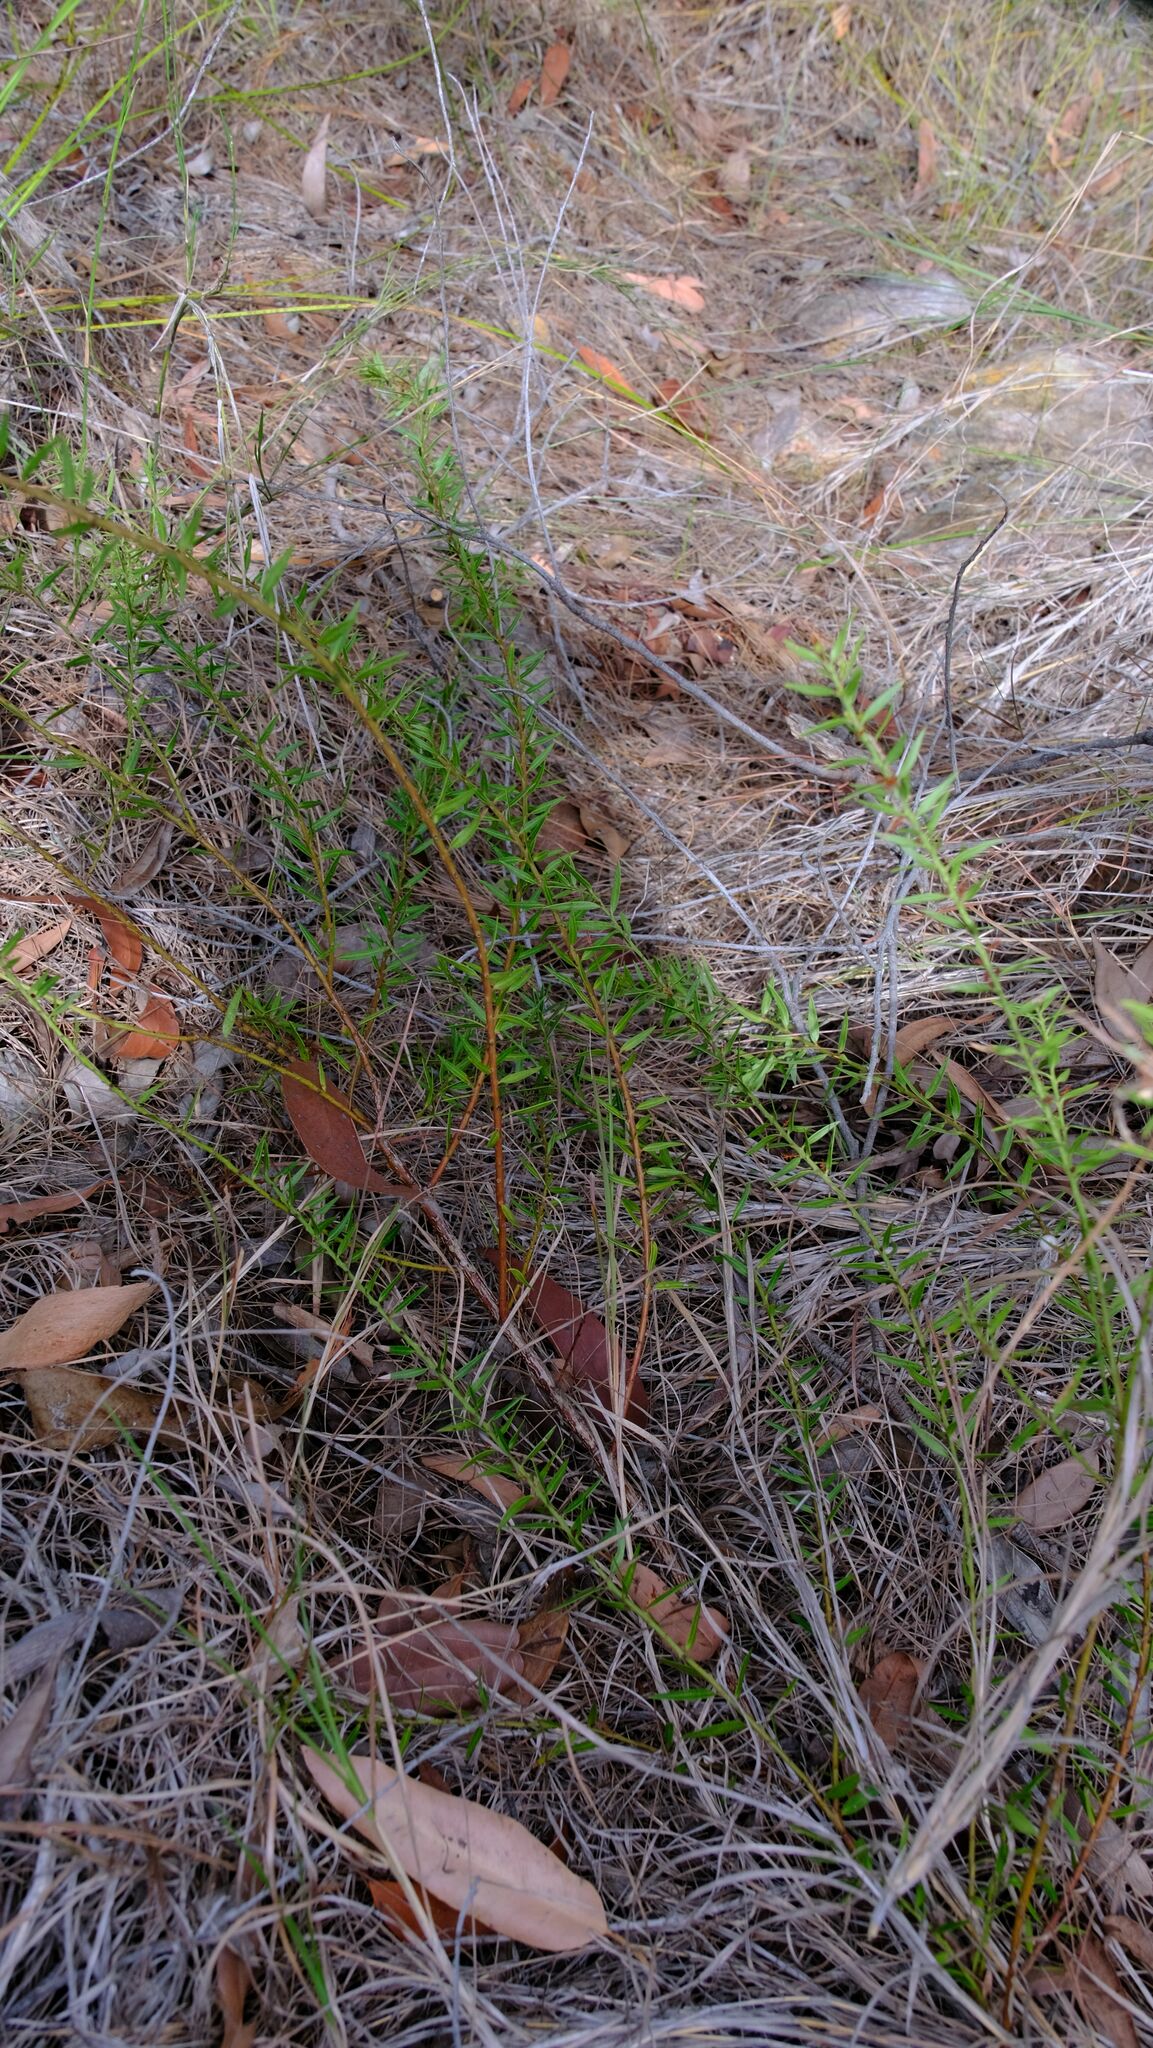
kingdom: Plantae
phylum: Tracheophyta
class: Magnoliopsida
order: Fabales
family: Fabaceae
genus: Daviesia
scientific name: Daviesia umbellulata
